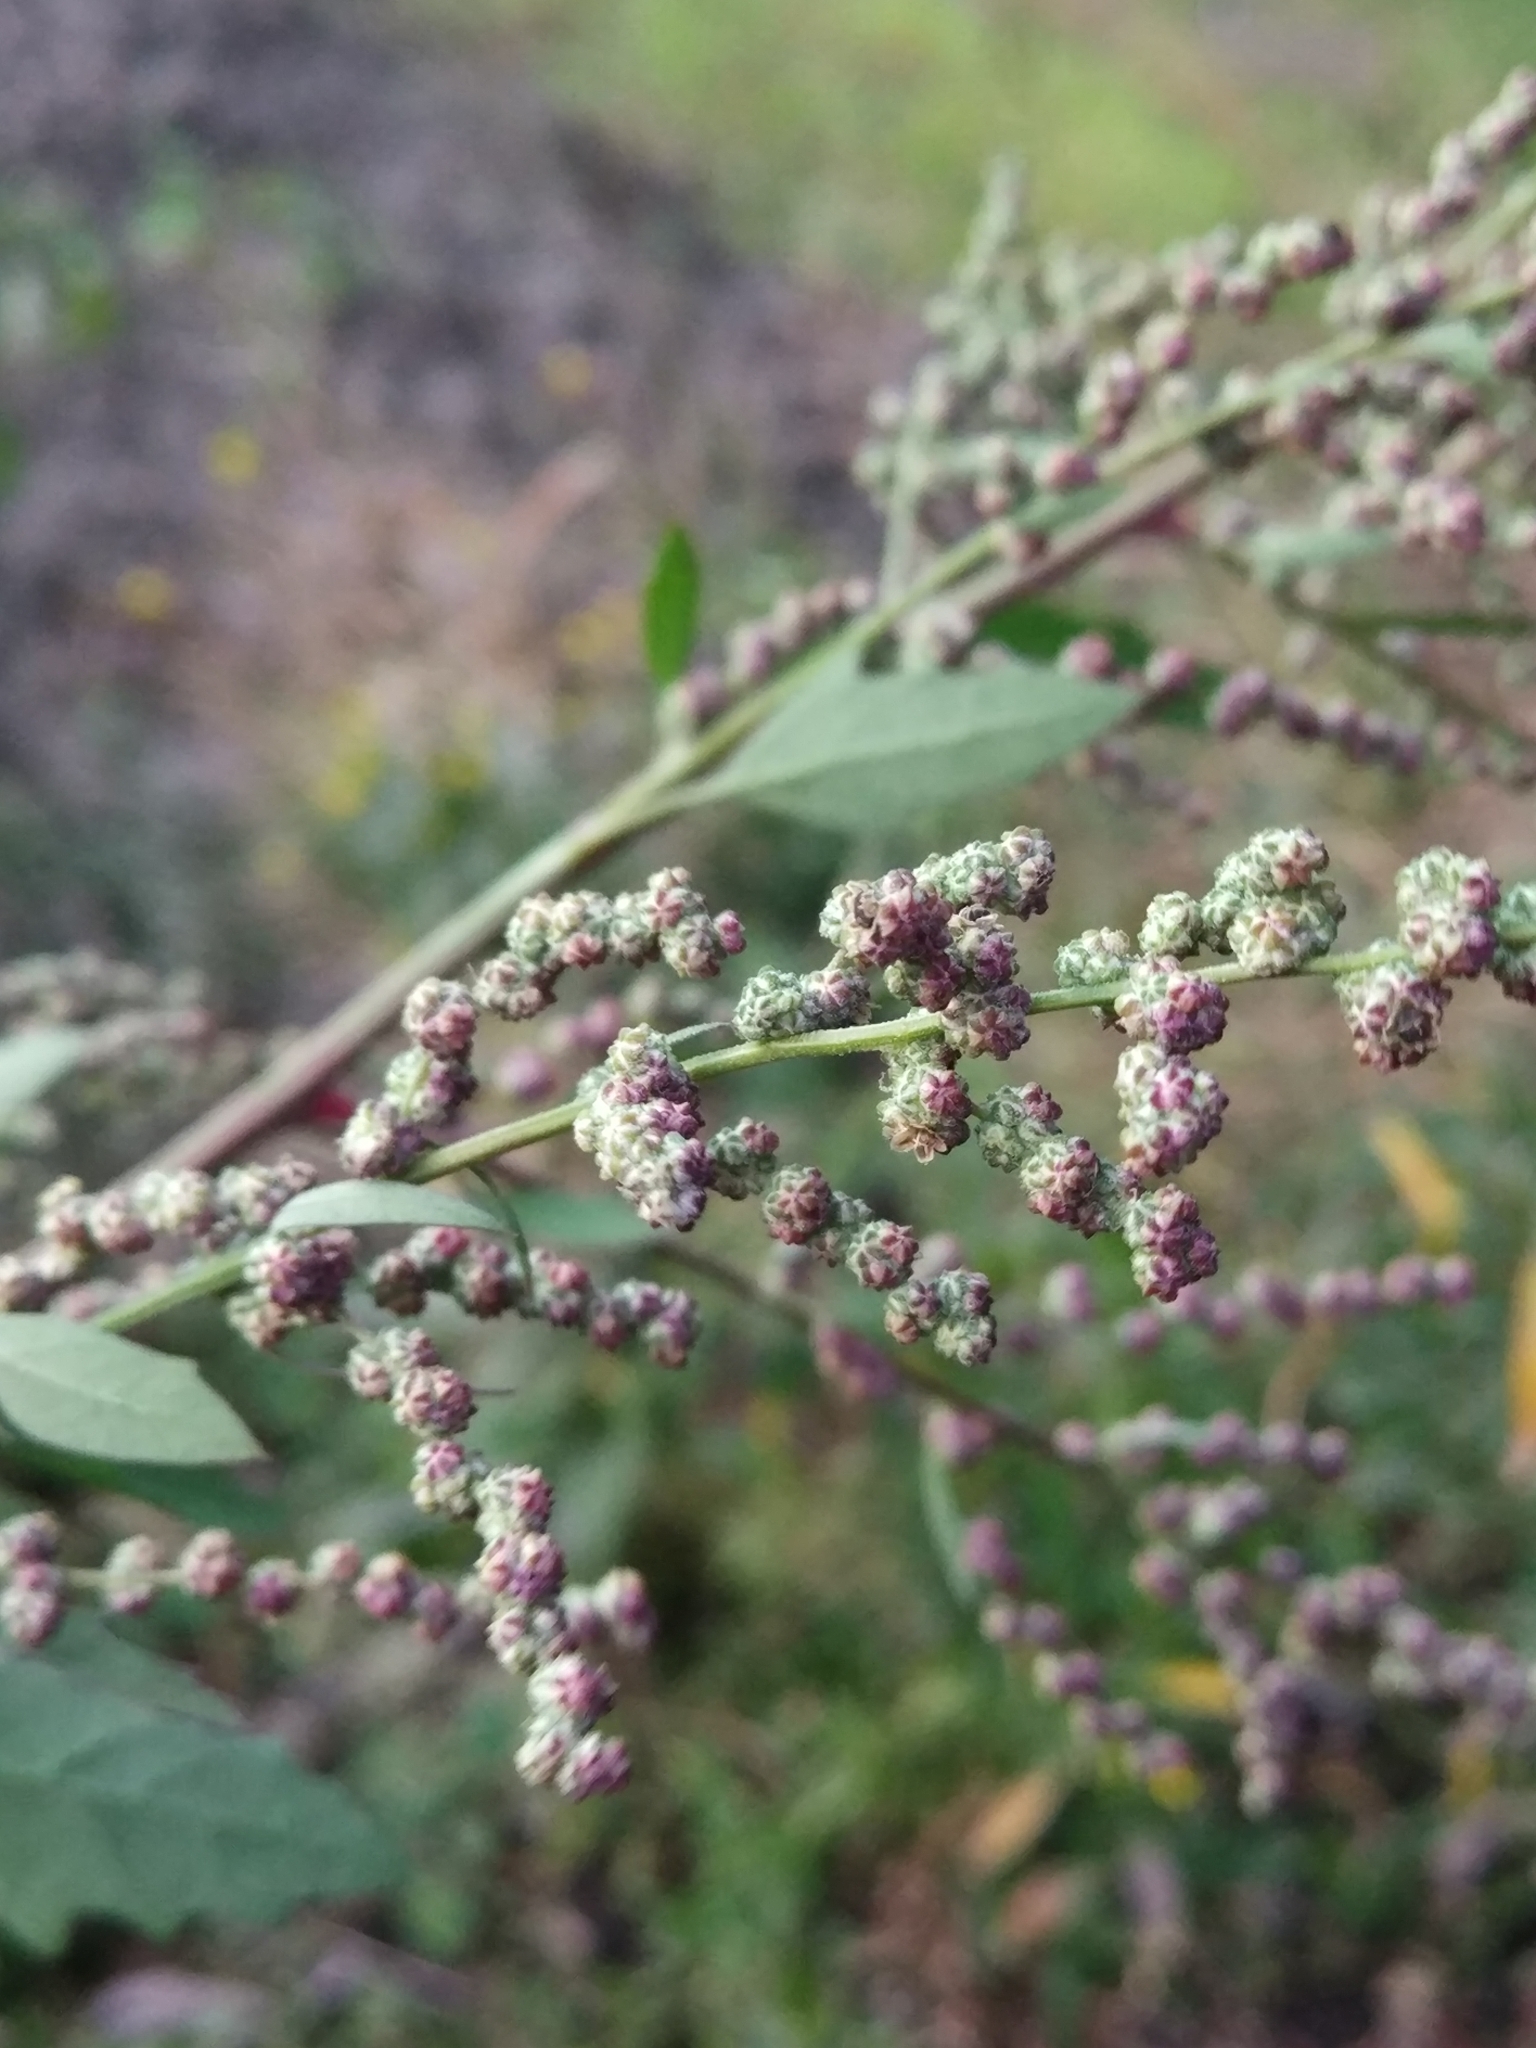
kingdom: Plantae
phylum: Tracheophyta
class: Magnoliopsida
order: Caryophyllales
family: Amaranthaceae
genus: Chenopodium
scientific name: Chenopodium album
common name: Fat-hen
